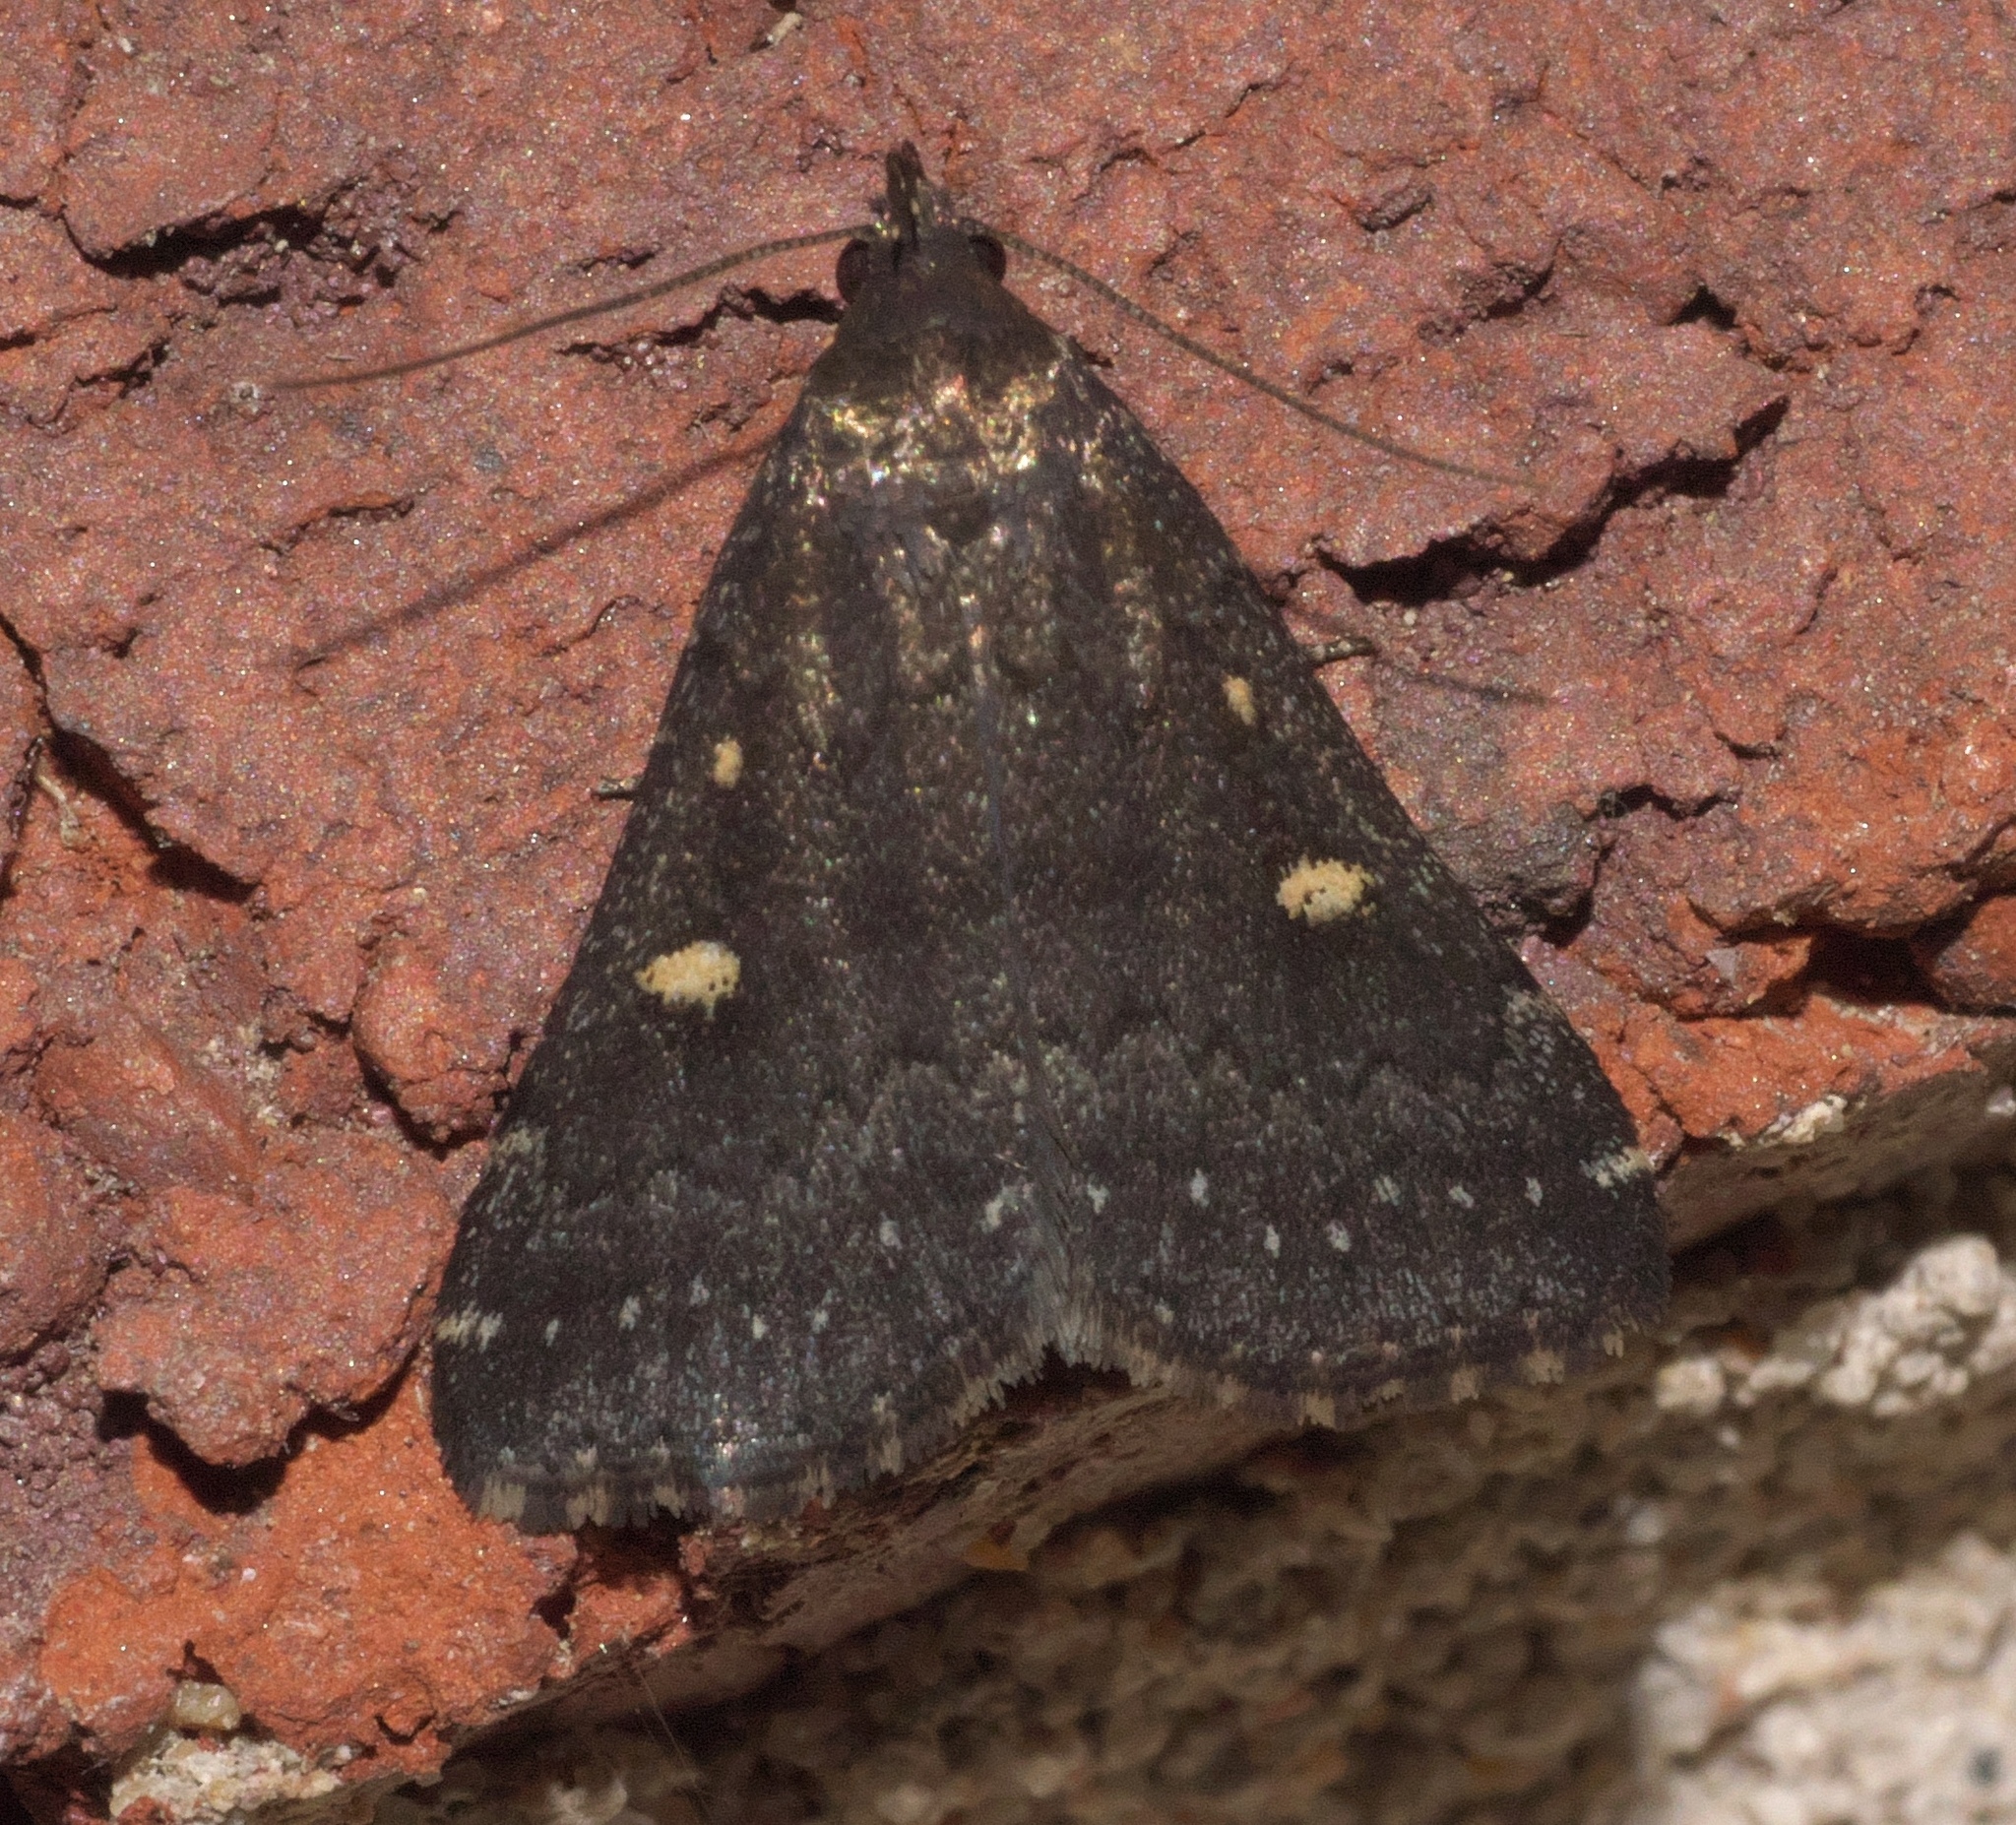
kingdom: Animalia
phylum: Arthropoda
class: Insecta
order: Lepidoptera
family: Erebidae
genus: Tetanolita
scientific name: Tetanolita mynesalis
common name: Smoky tetanolita moth
